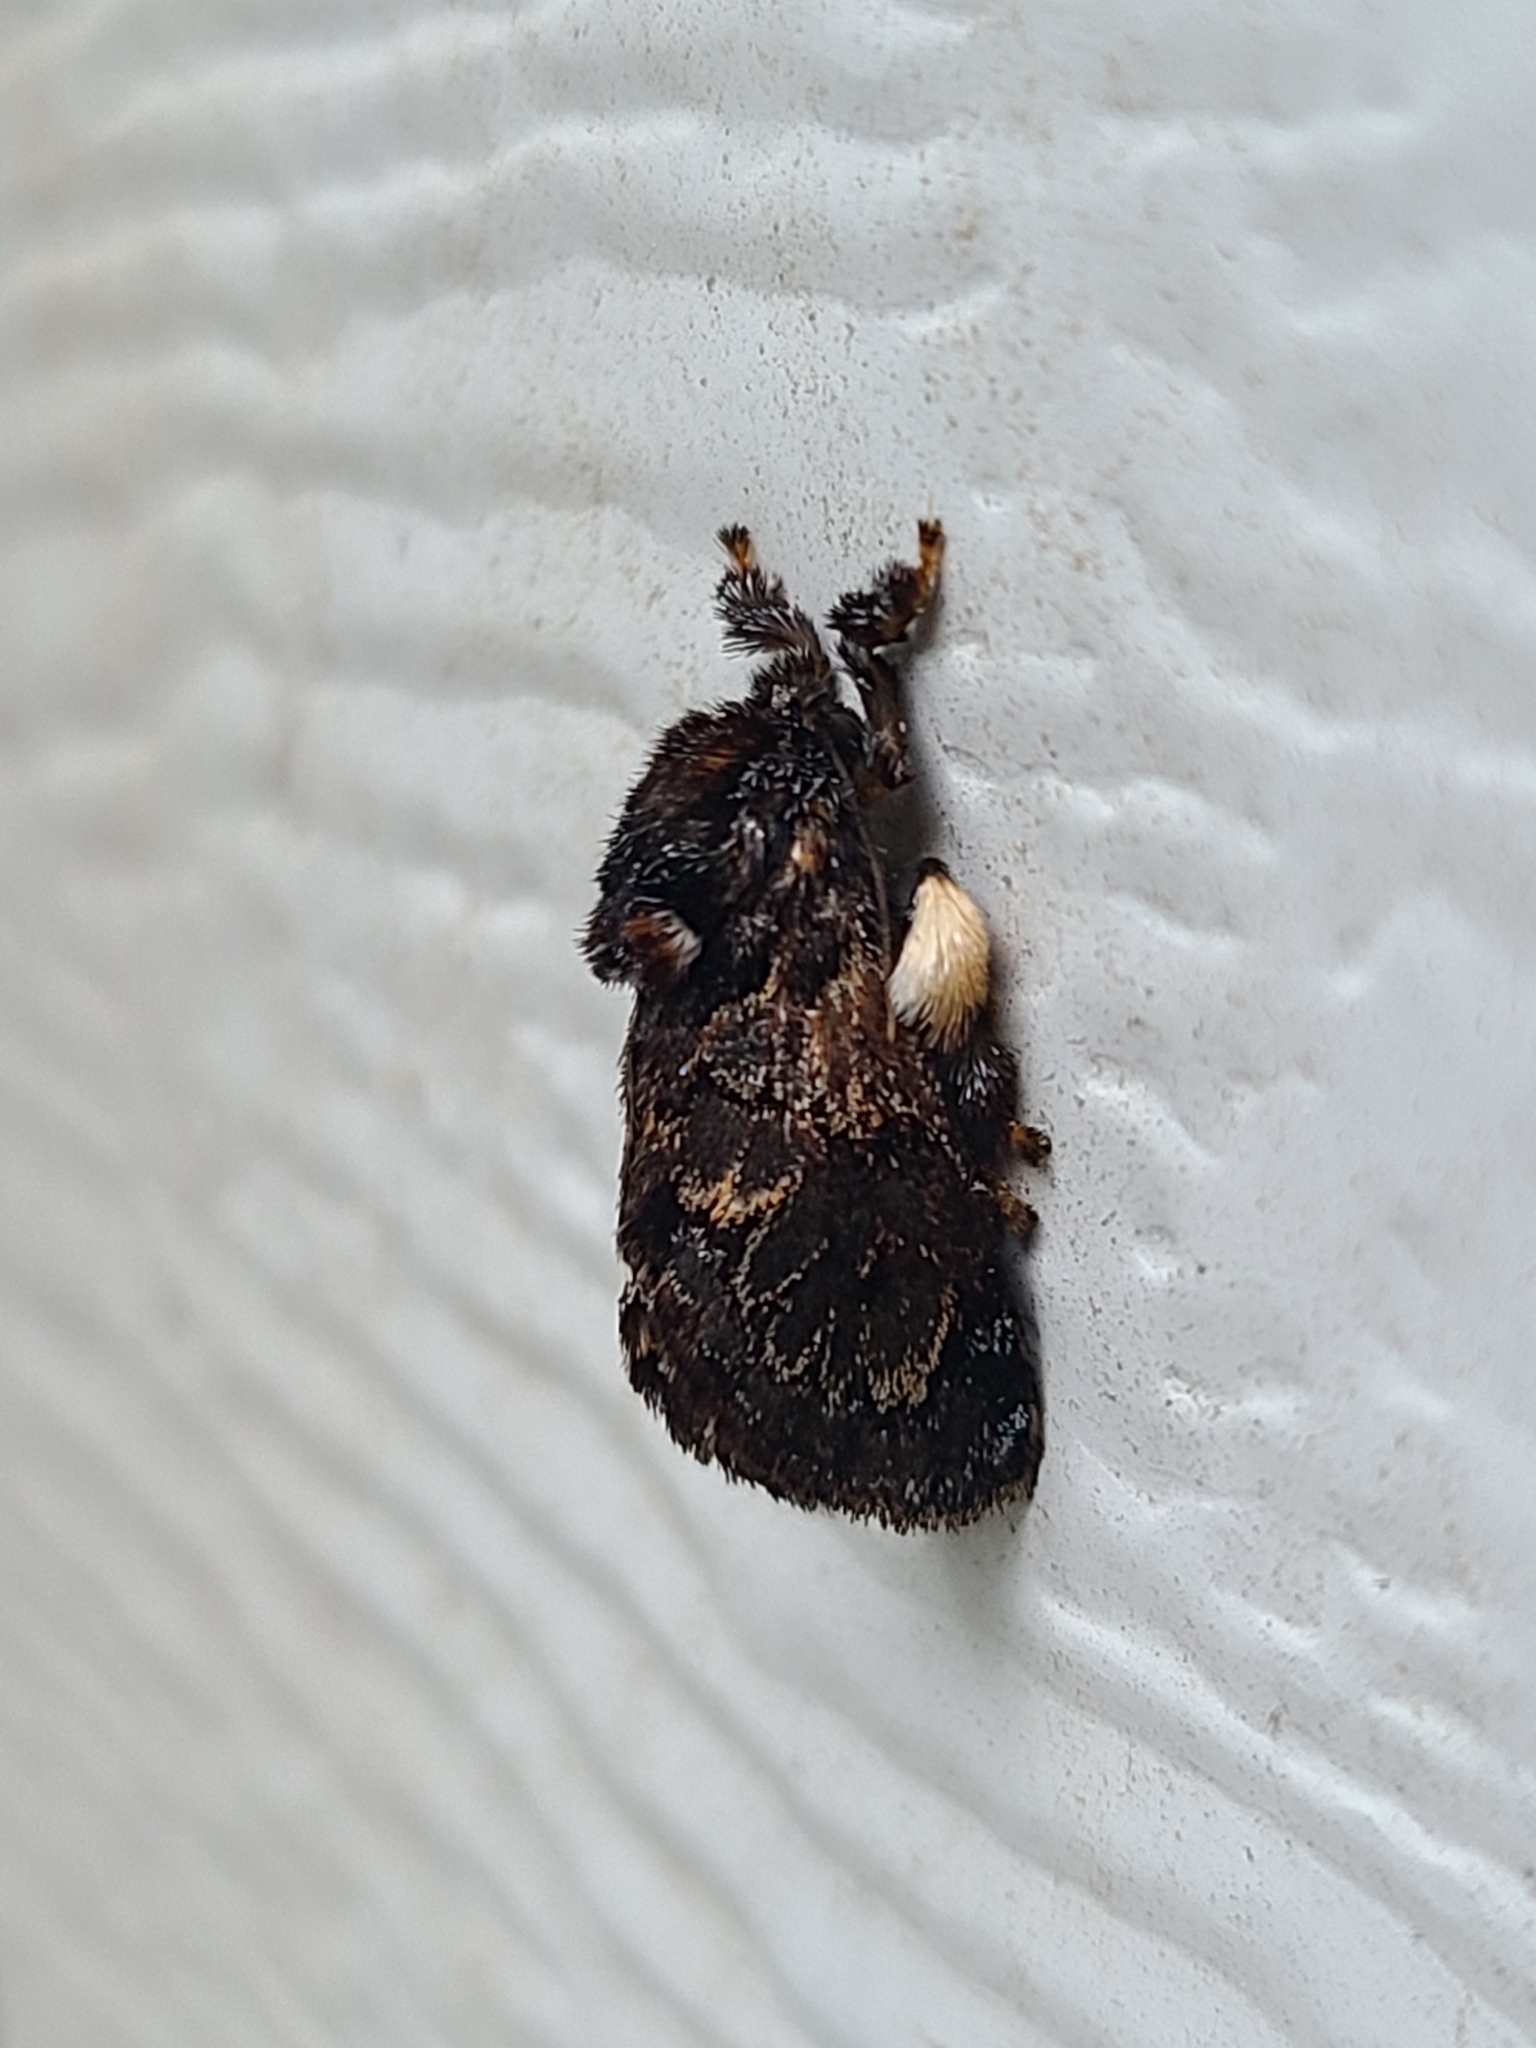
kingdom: Animalia
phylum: Arthropoda
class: Insecta
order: Lepidoptera
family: Limacodidae
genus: Phobetron
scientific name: Phobetron pithecium
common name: Hag moth
